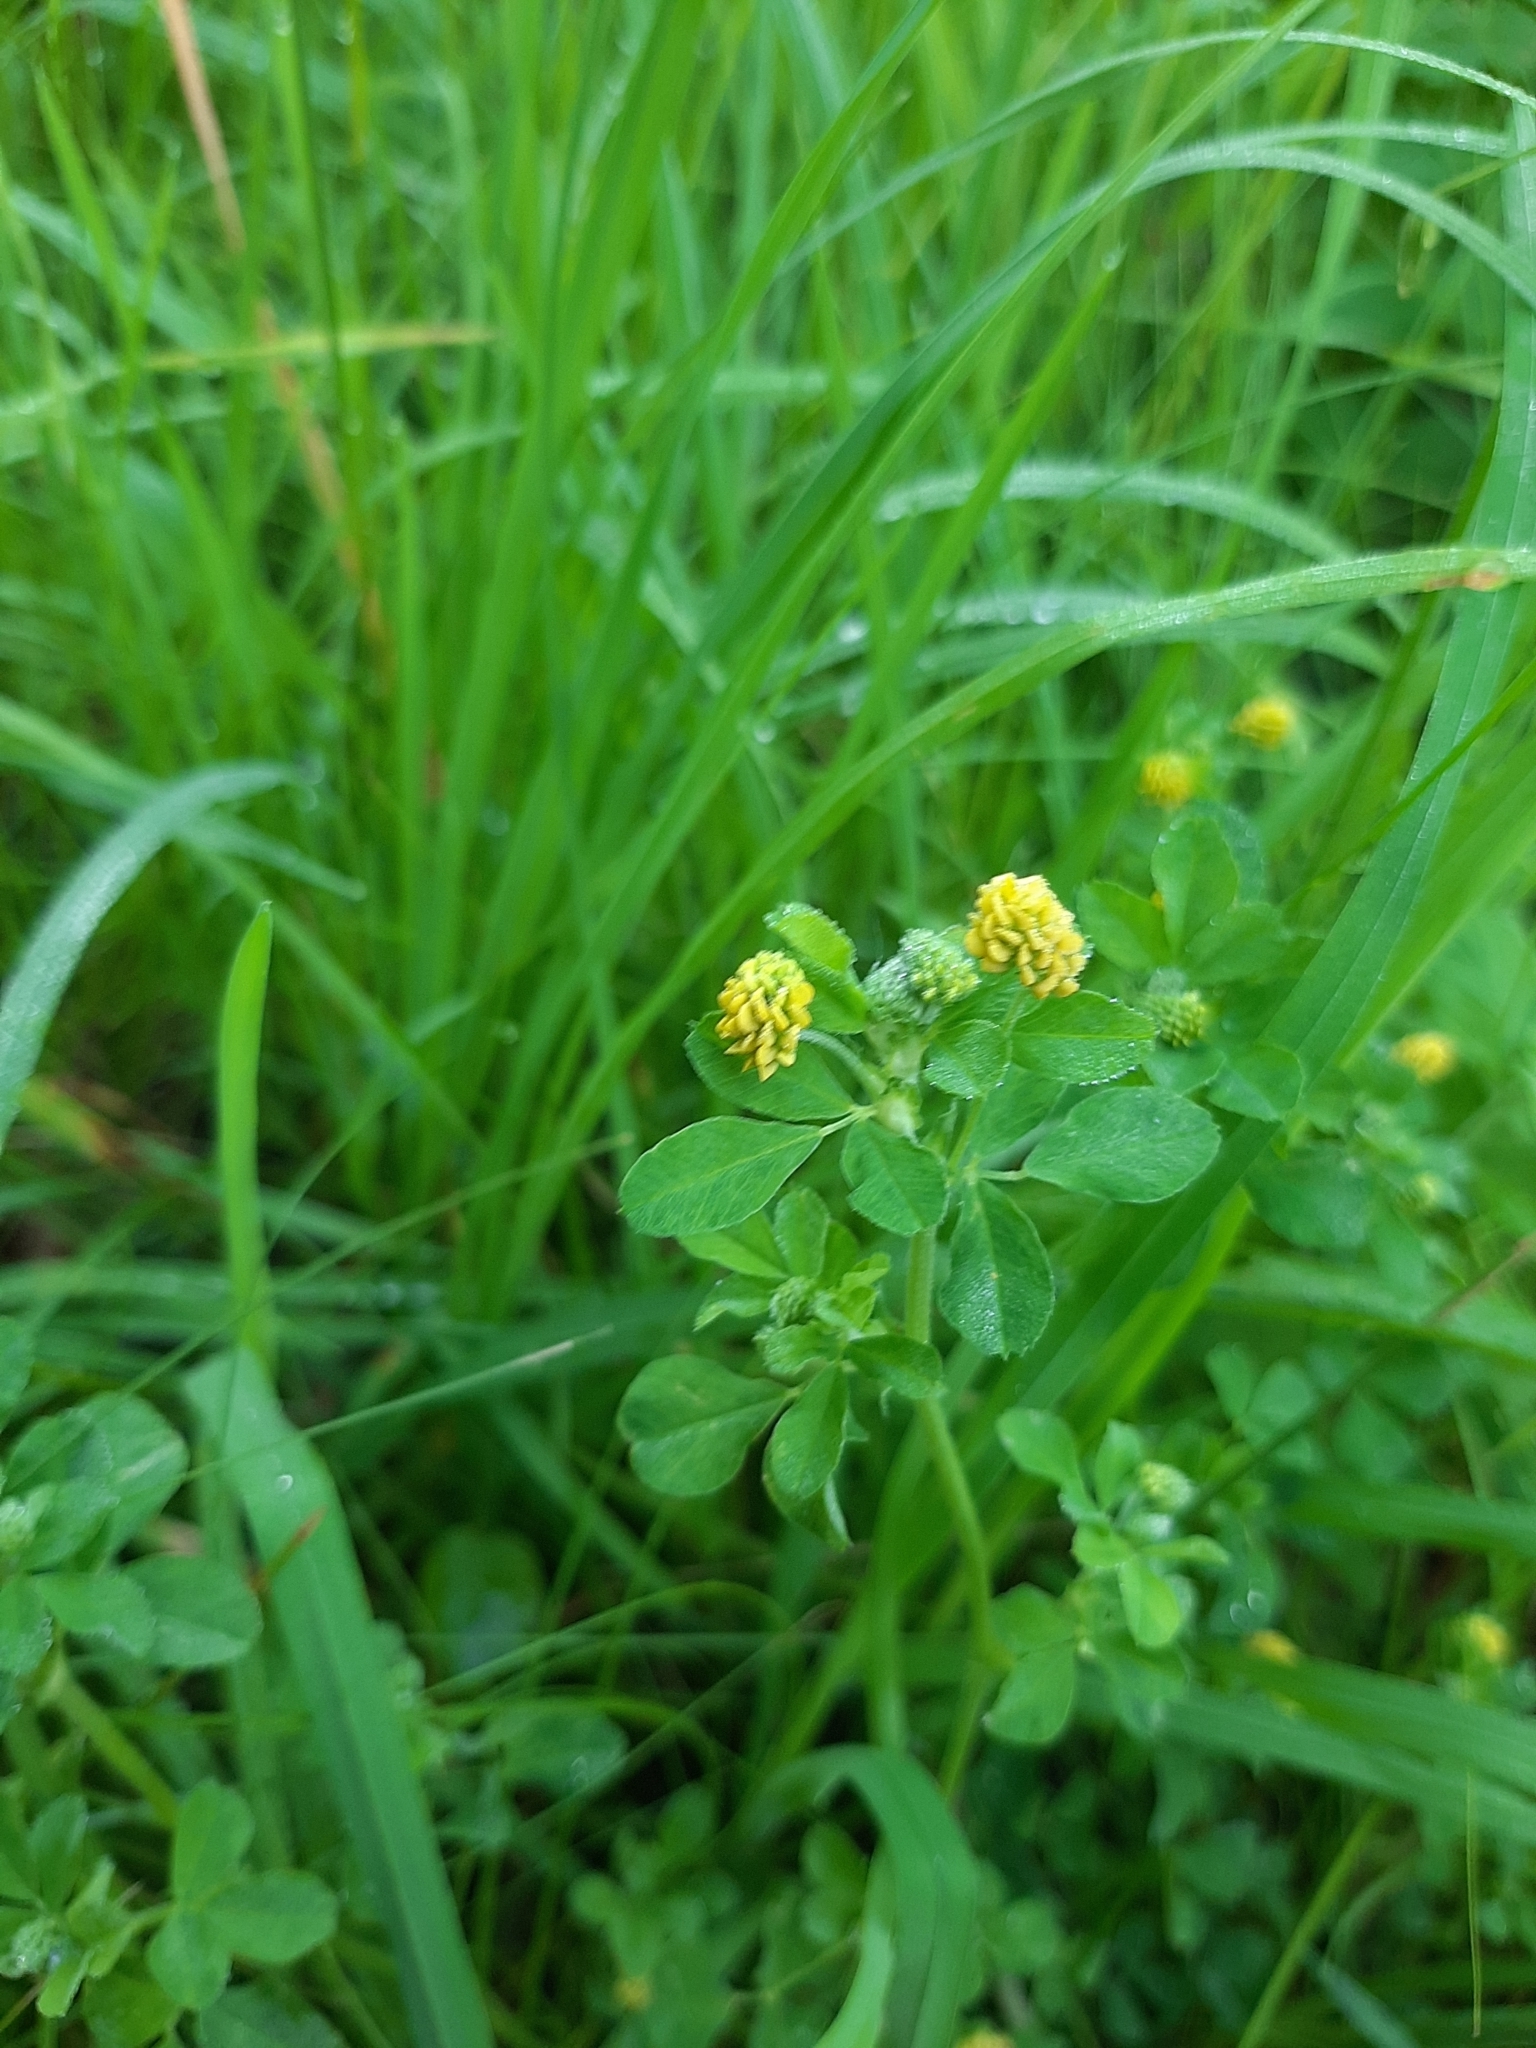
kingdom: Plantae
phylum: Tracheophyta
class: Magnoliopsida
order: Fabales
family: Fabaceae
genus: Medicago
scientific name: Medicago lupulina
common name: Black medick
